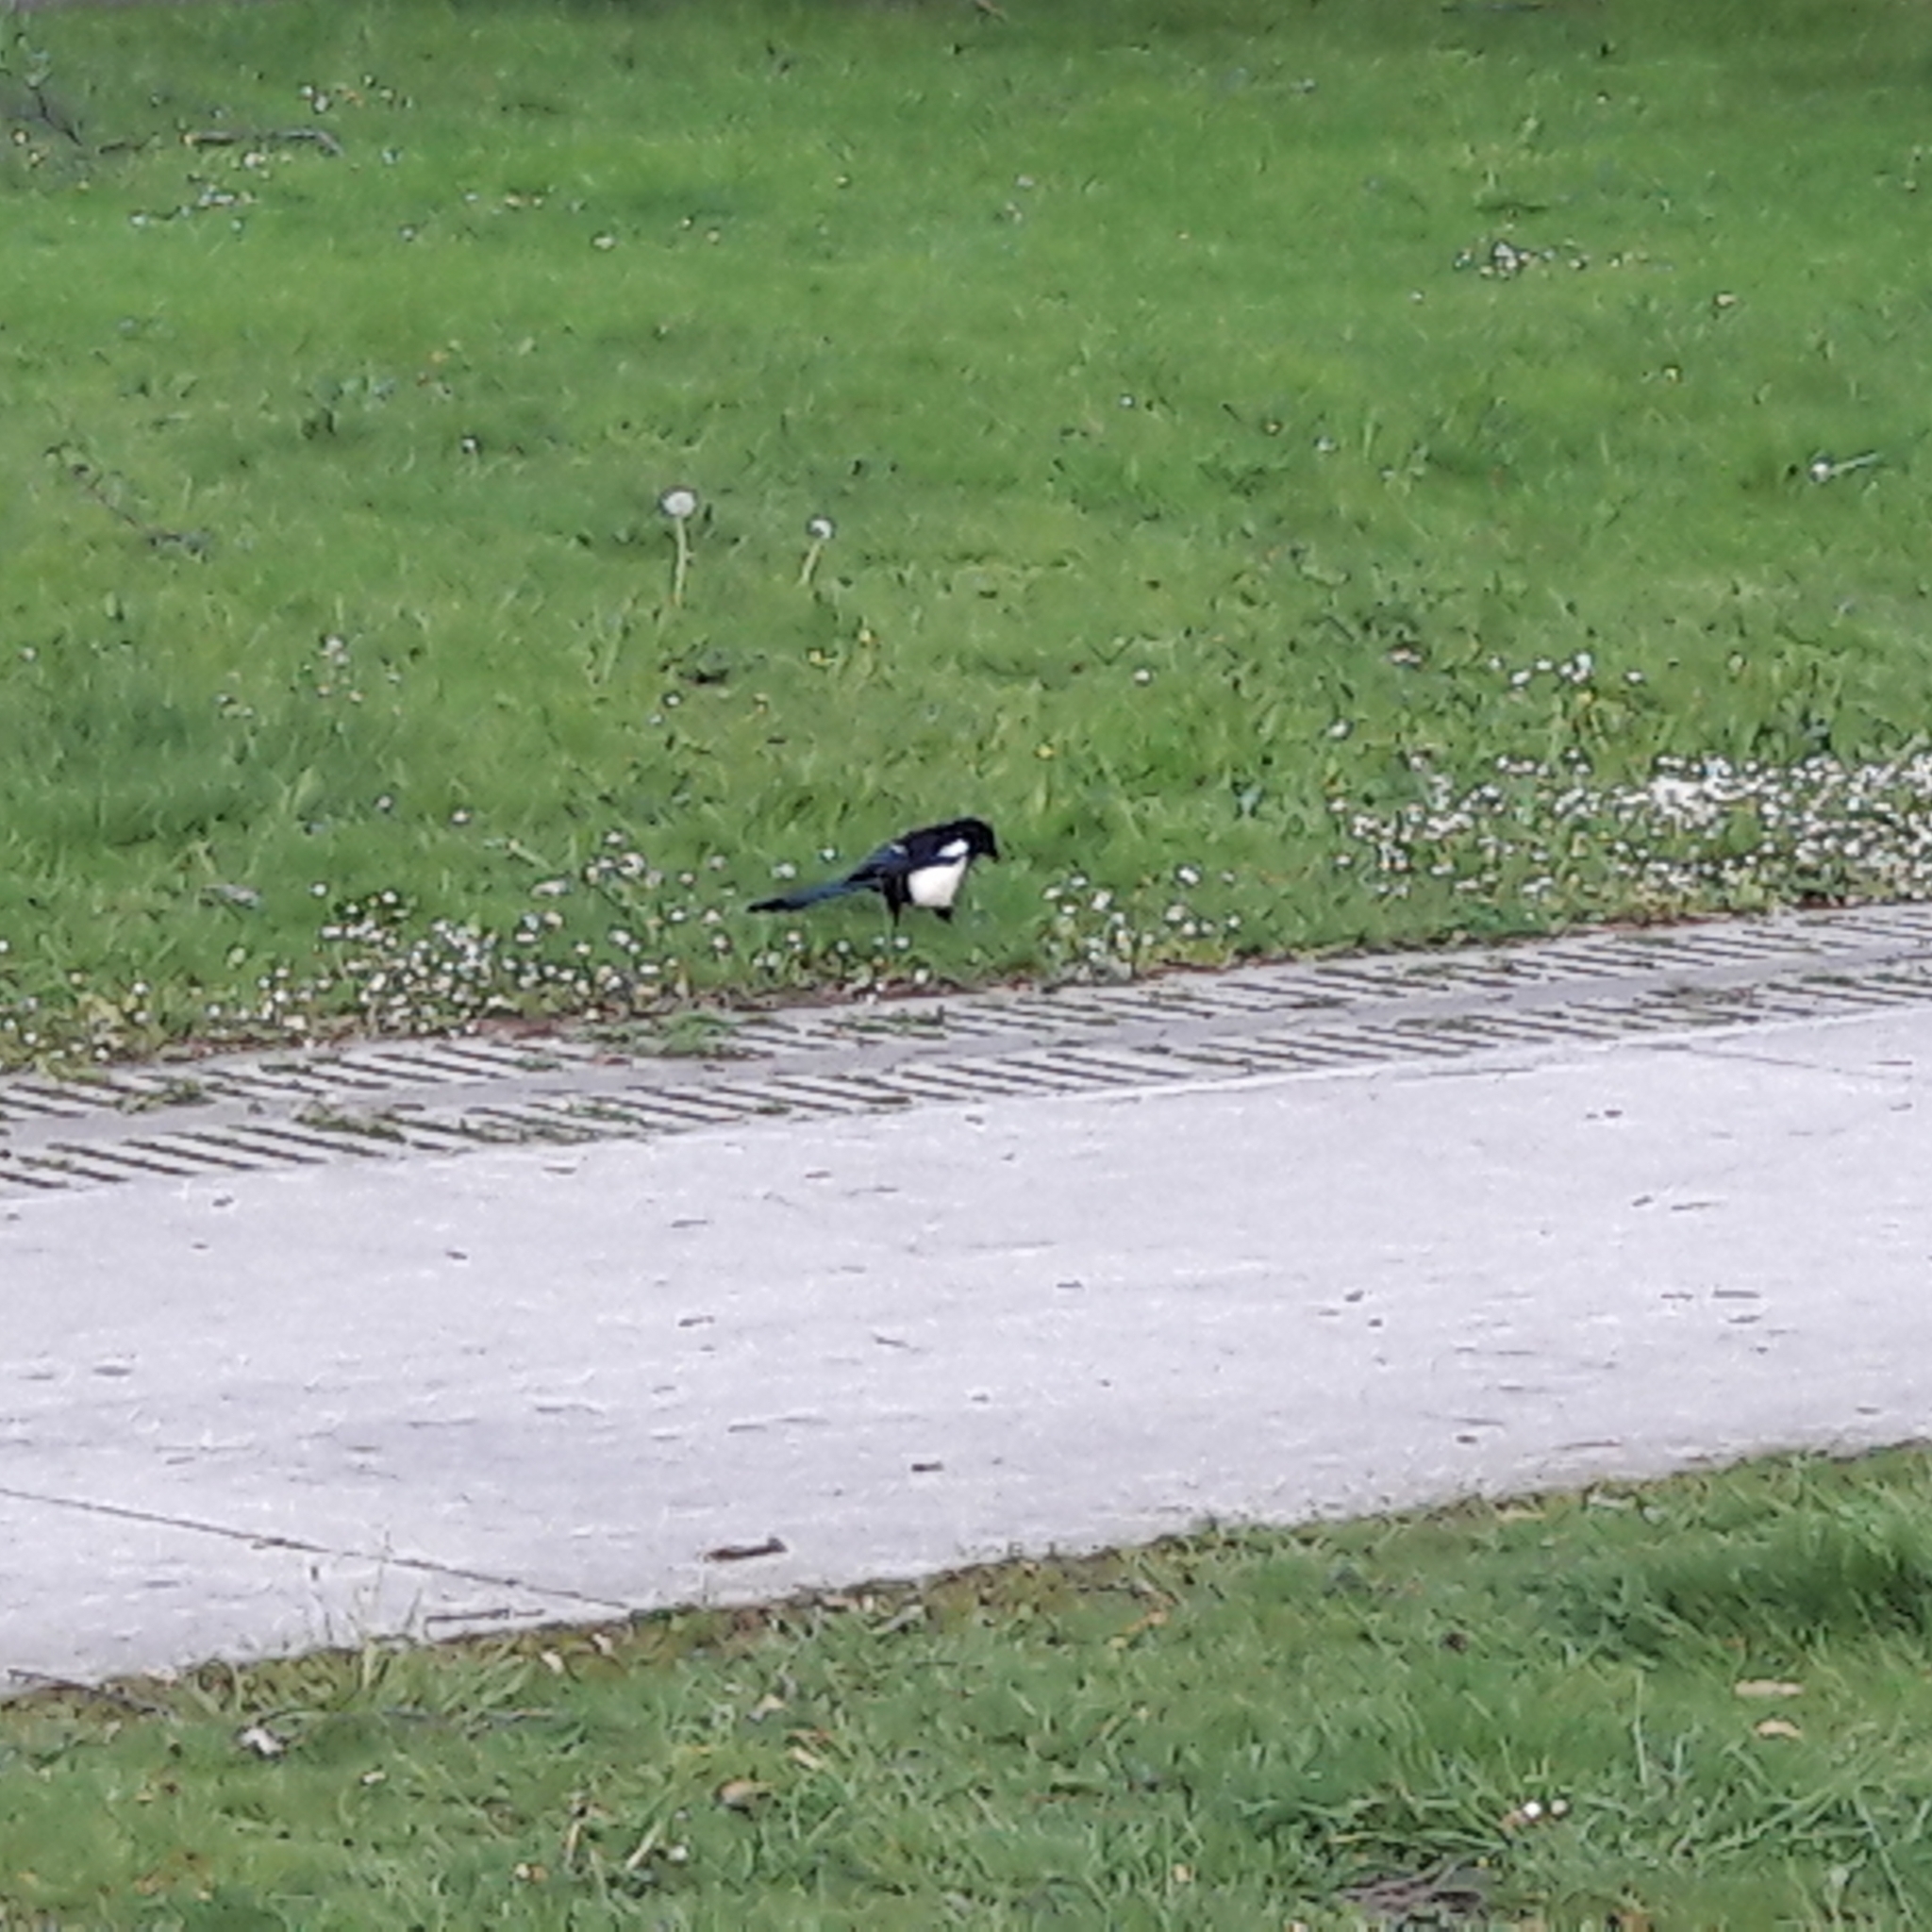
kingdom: Animalia
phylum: Chordata
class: Aves
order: Passeriformes
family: Corvidae
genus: Pica
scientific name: Pica pica
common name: Eurasian magpie
